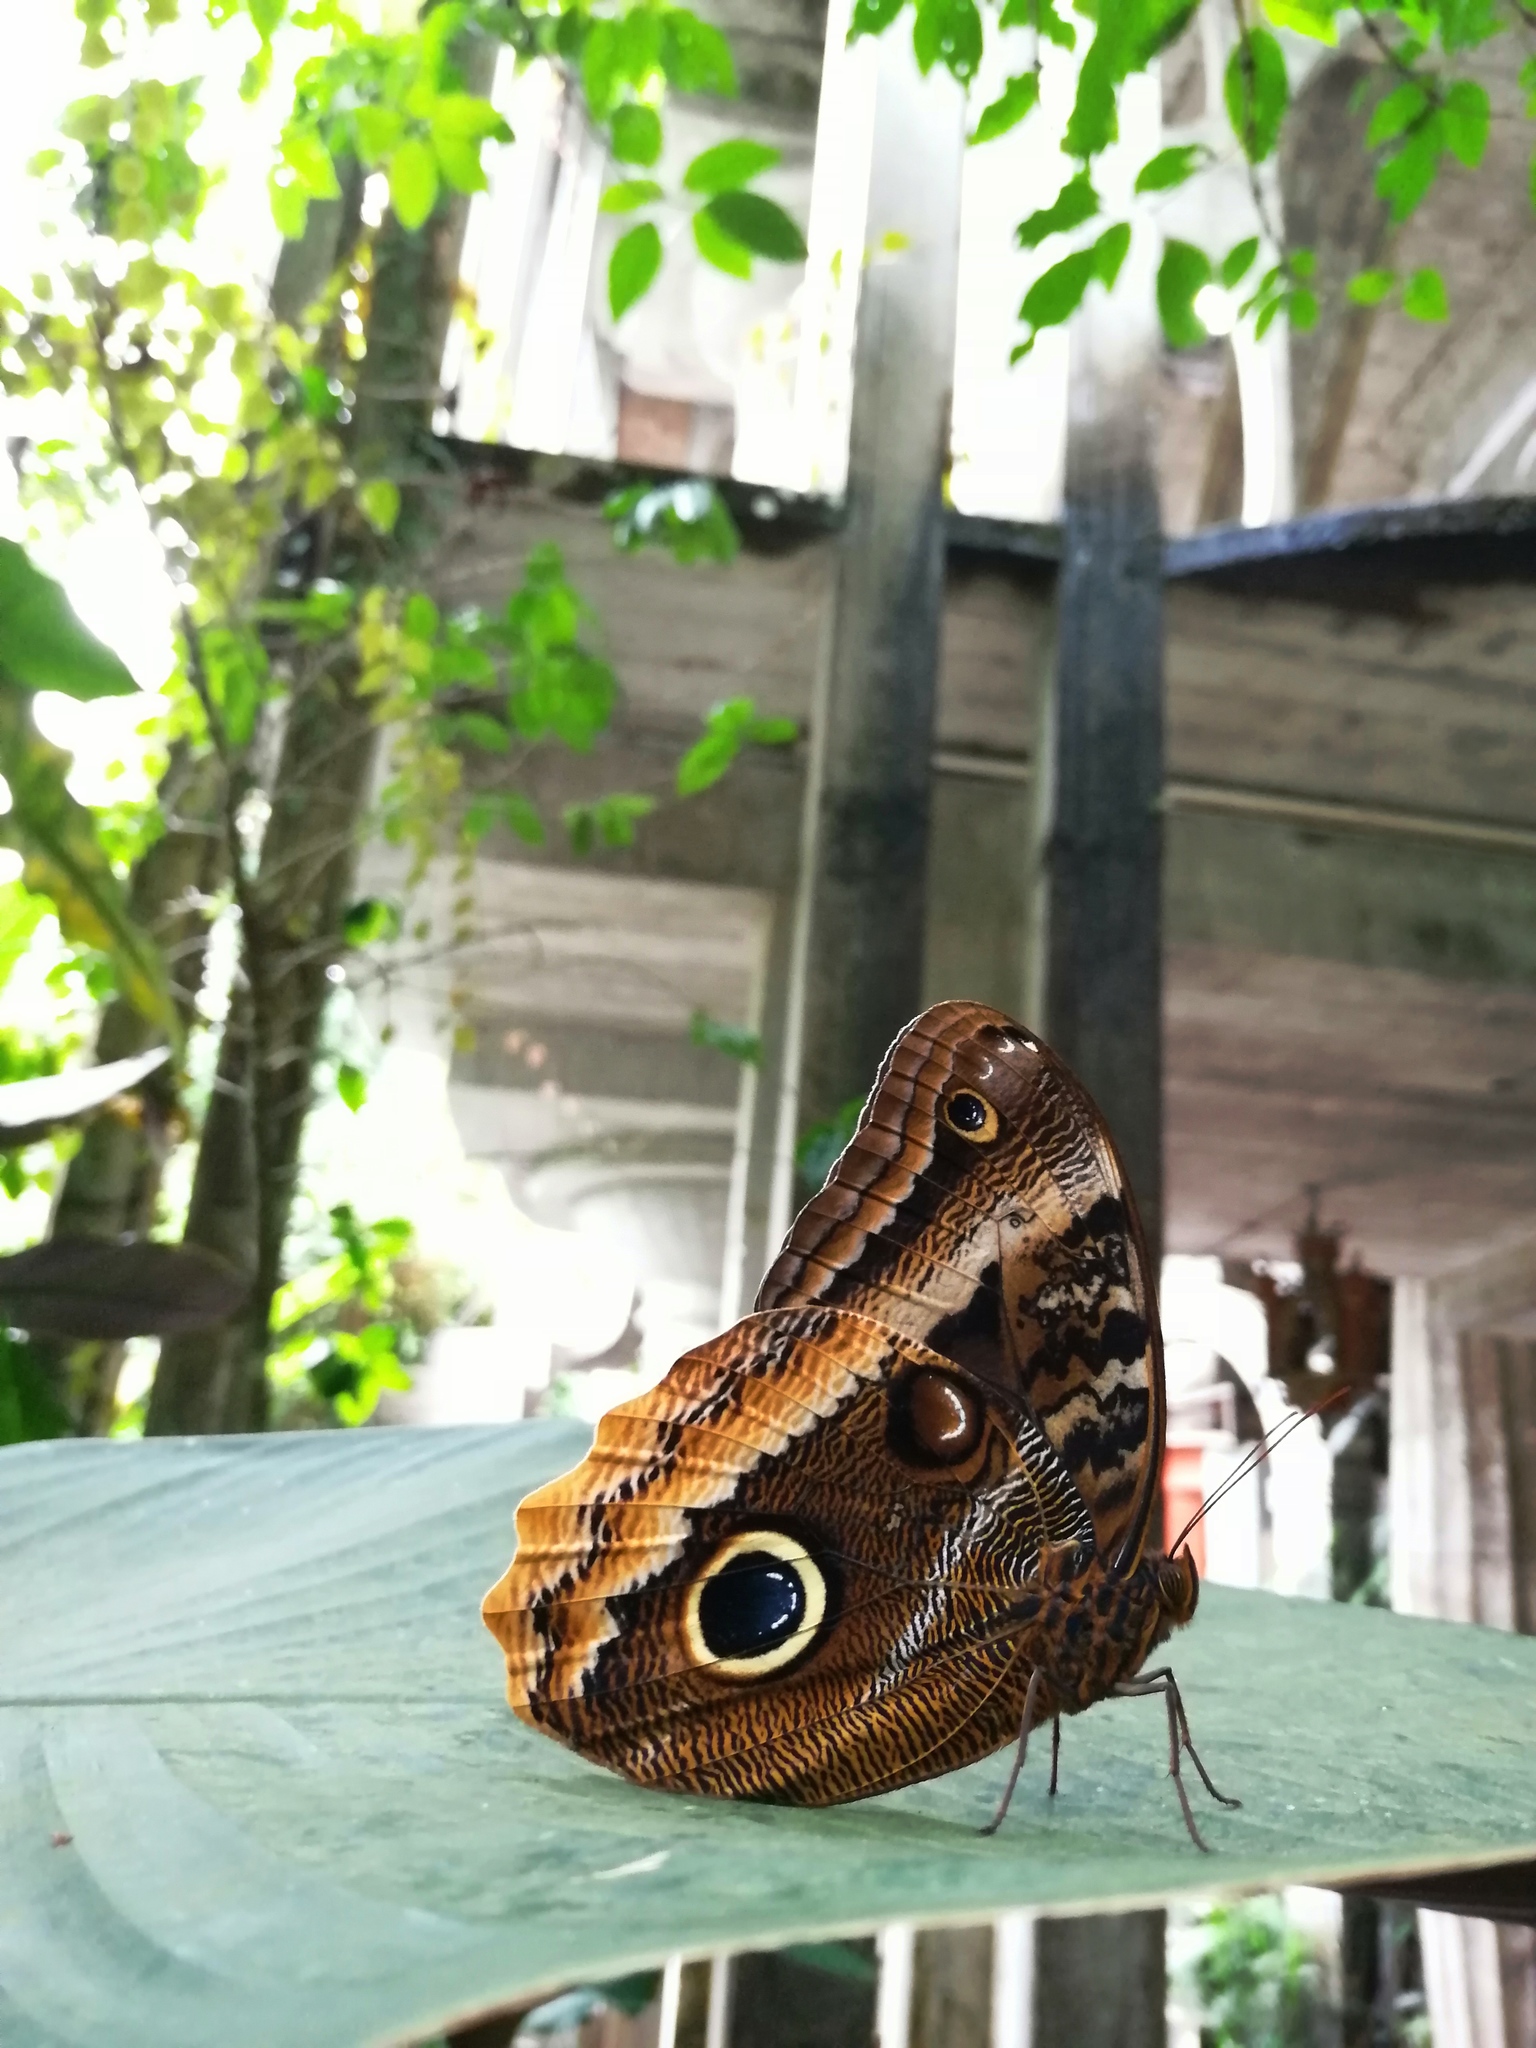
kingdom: Animalia
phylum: Arthropoda
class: Insecta
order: Lepidoptera
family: Nymphalidae
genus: Caligo
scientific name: Caligo uranus
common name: Gold-edged owl-butterfly
